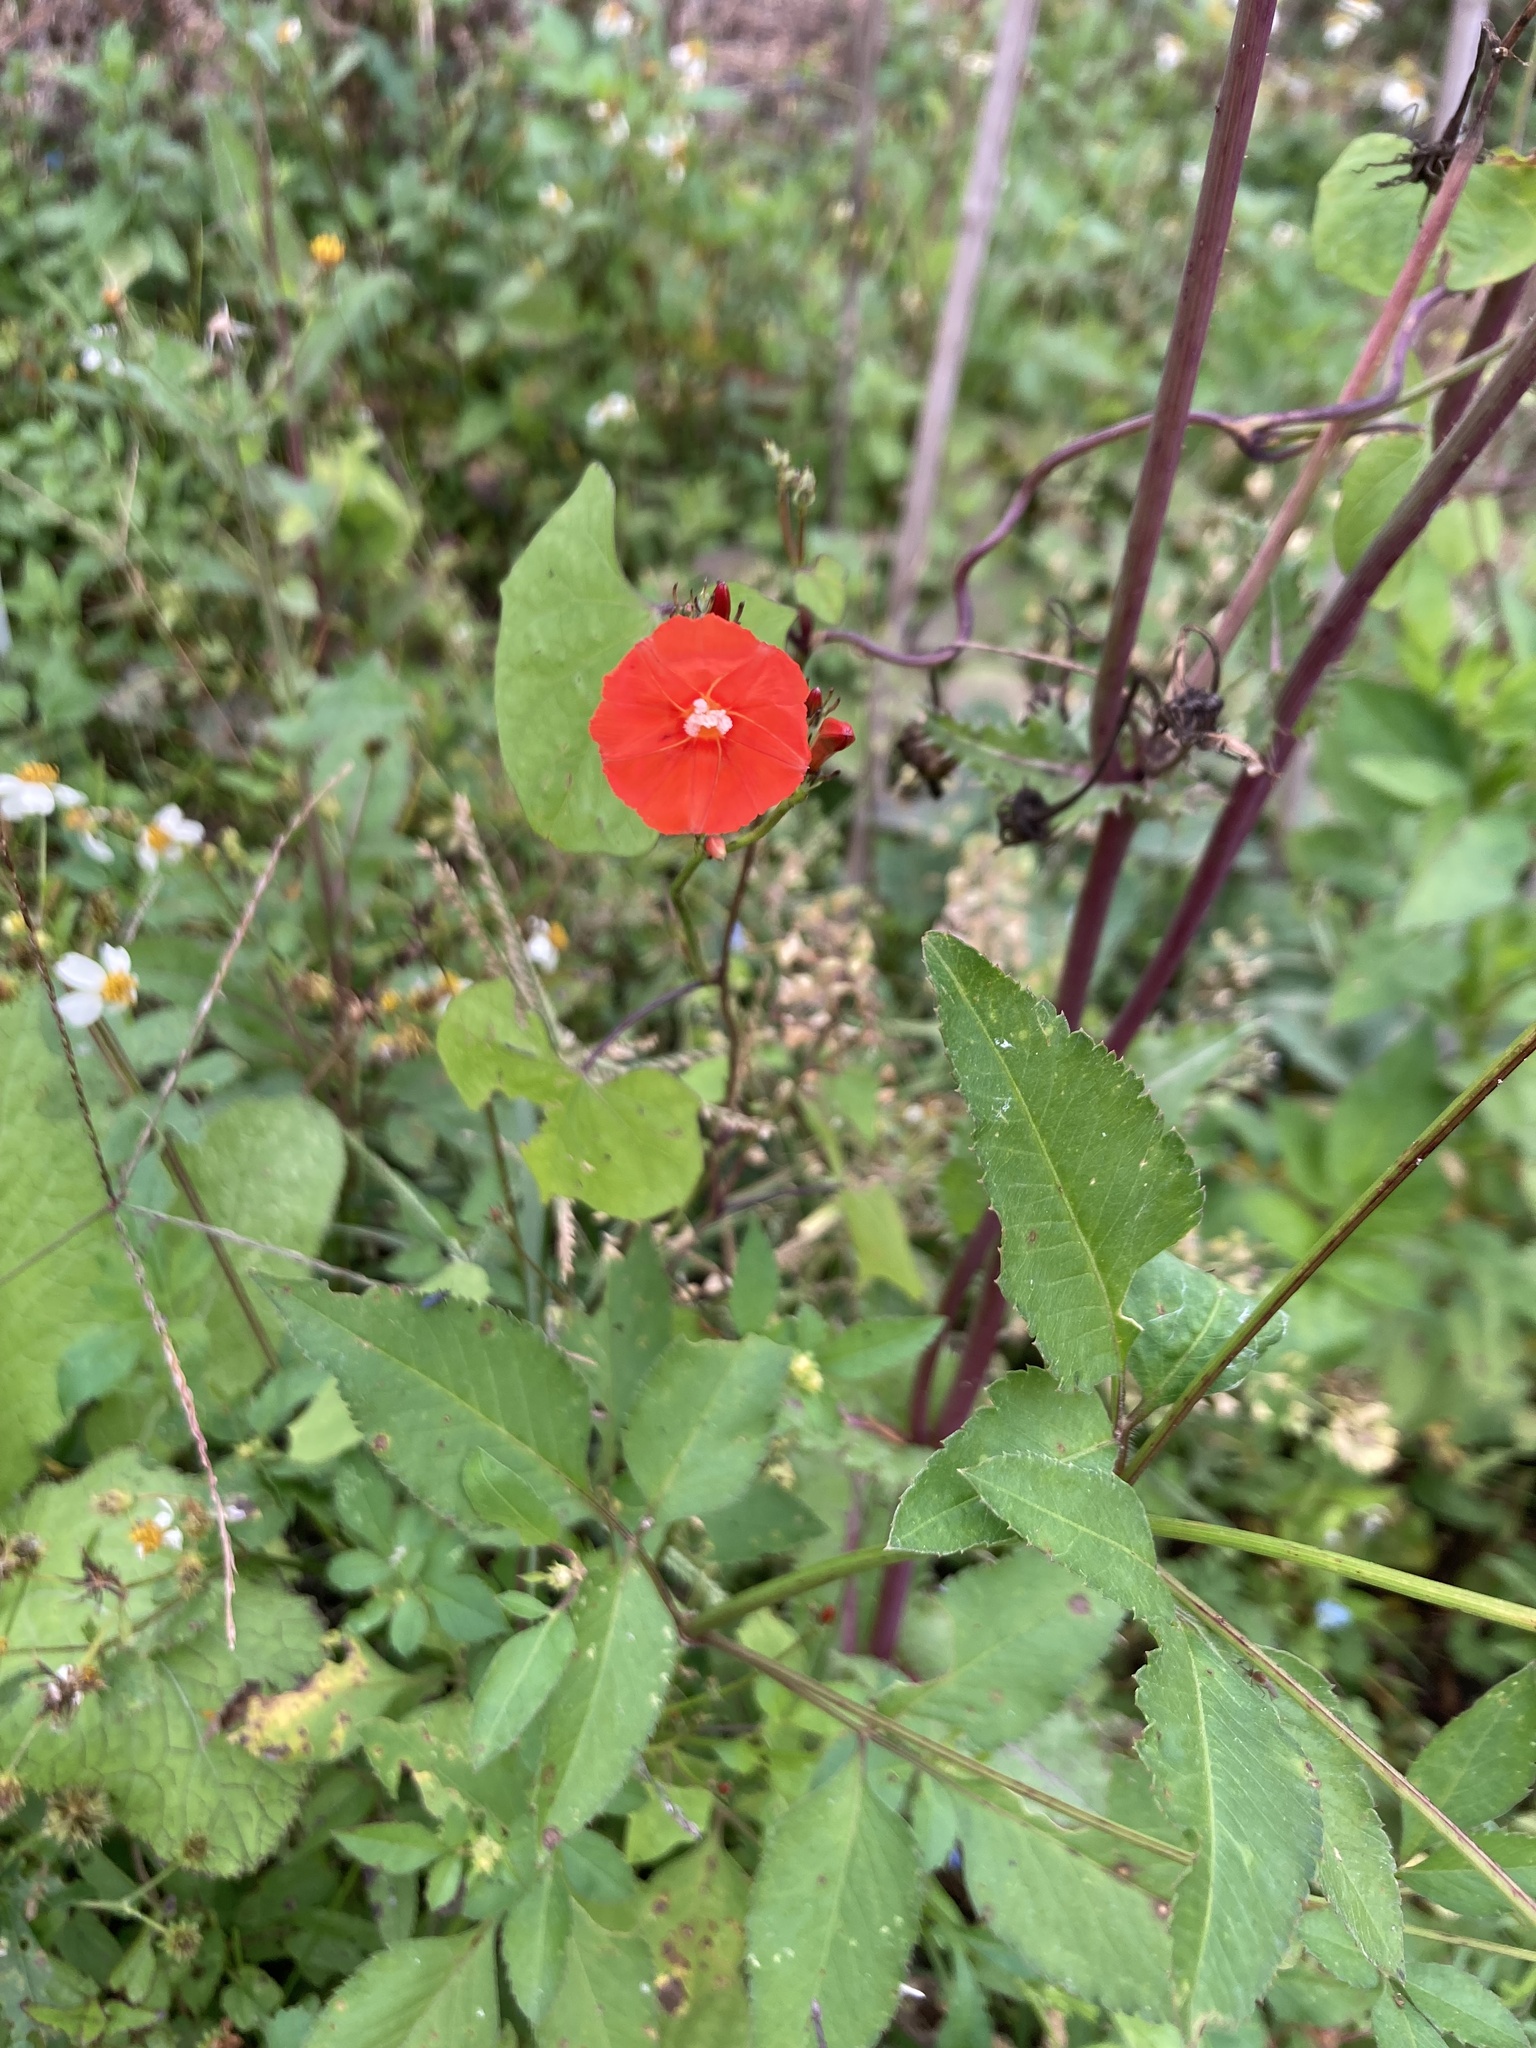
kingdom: Plantae
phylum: Tracheophyta
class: Magnoliopsida
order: Solanales
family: Convolvulaceae
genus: Ipomoea
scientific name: Ipomoea hederifolia
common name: Ivy-leaf morning-glory
